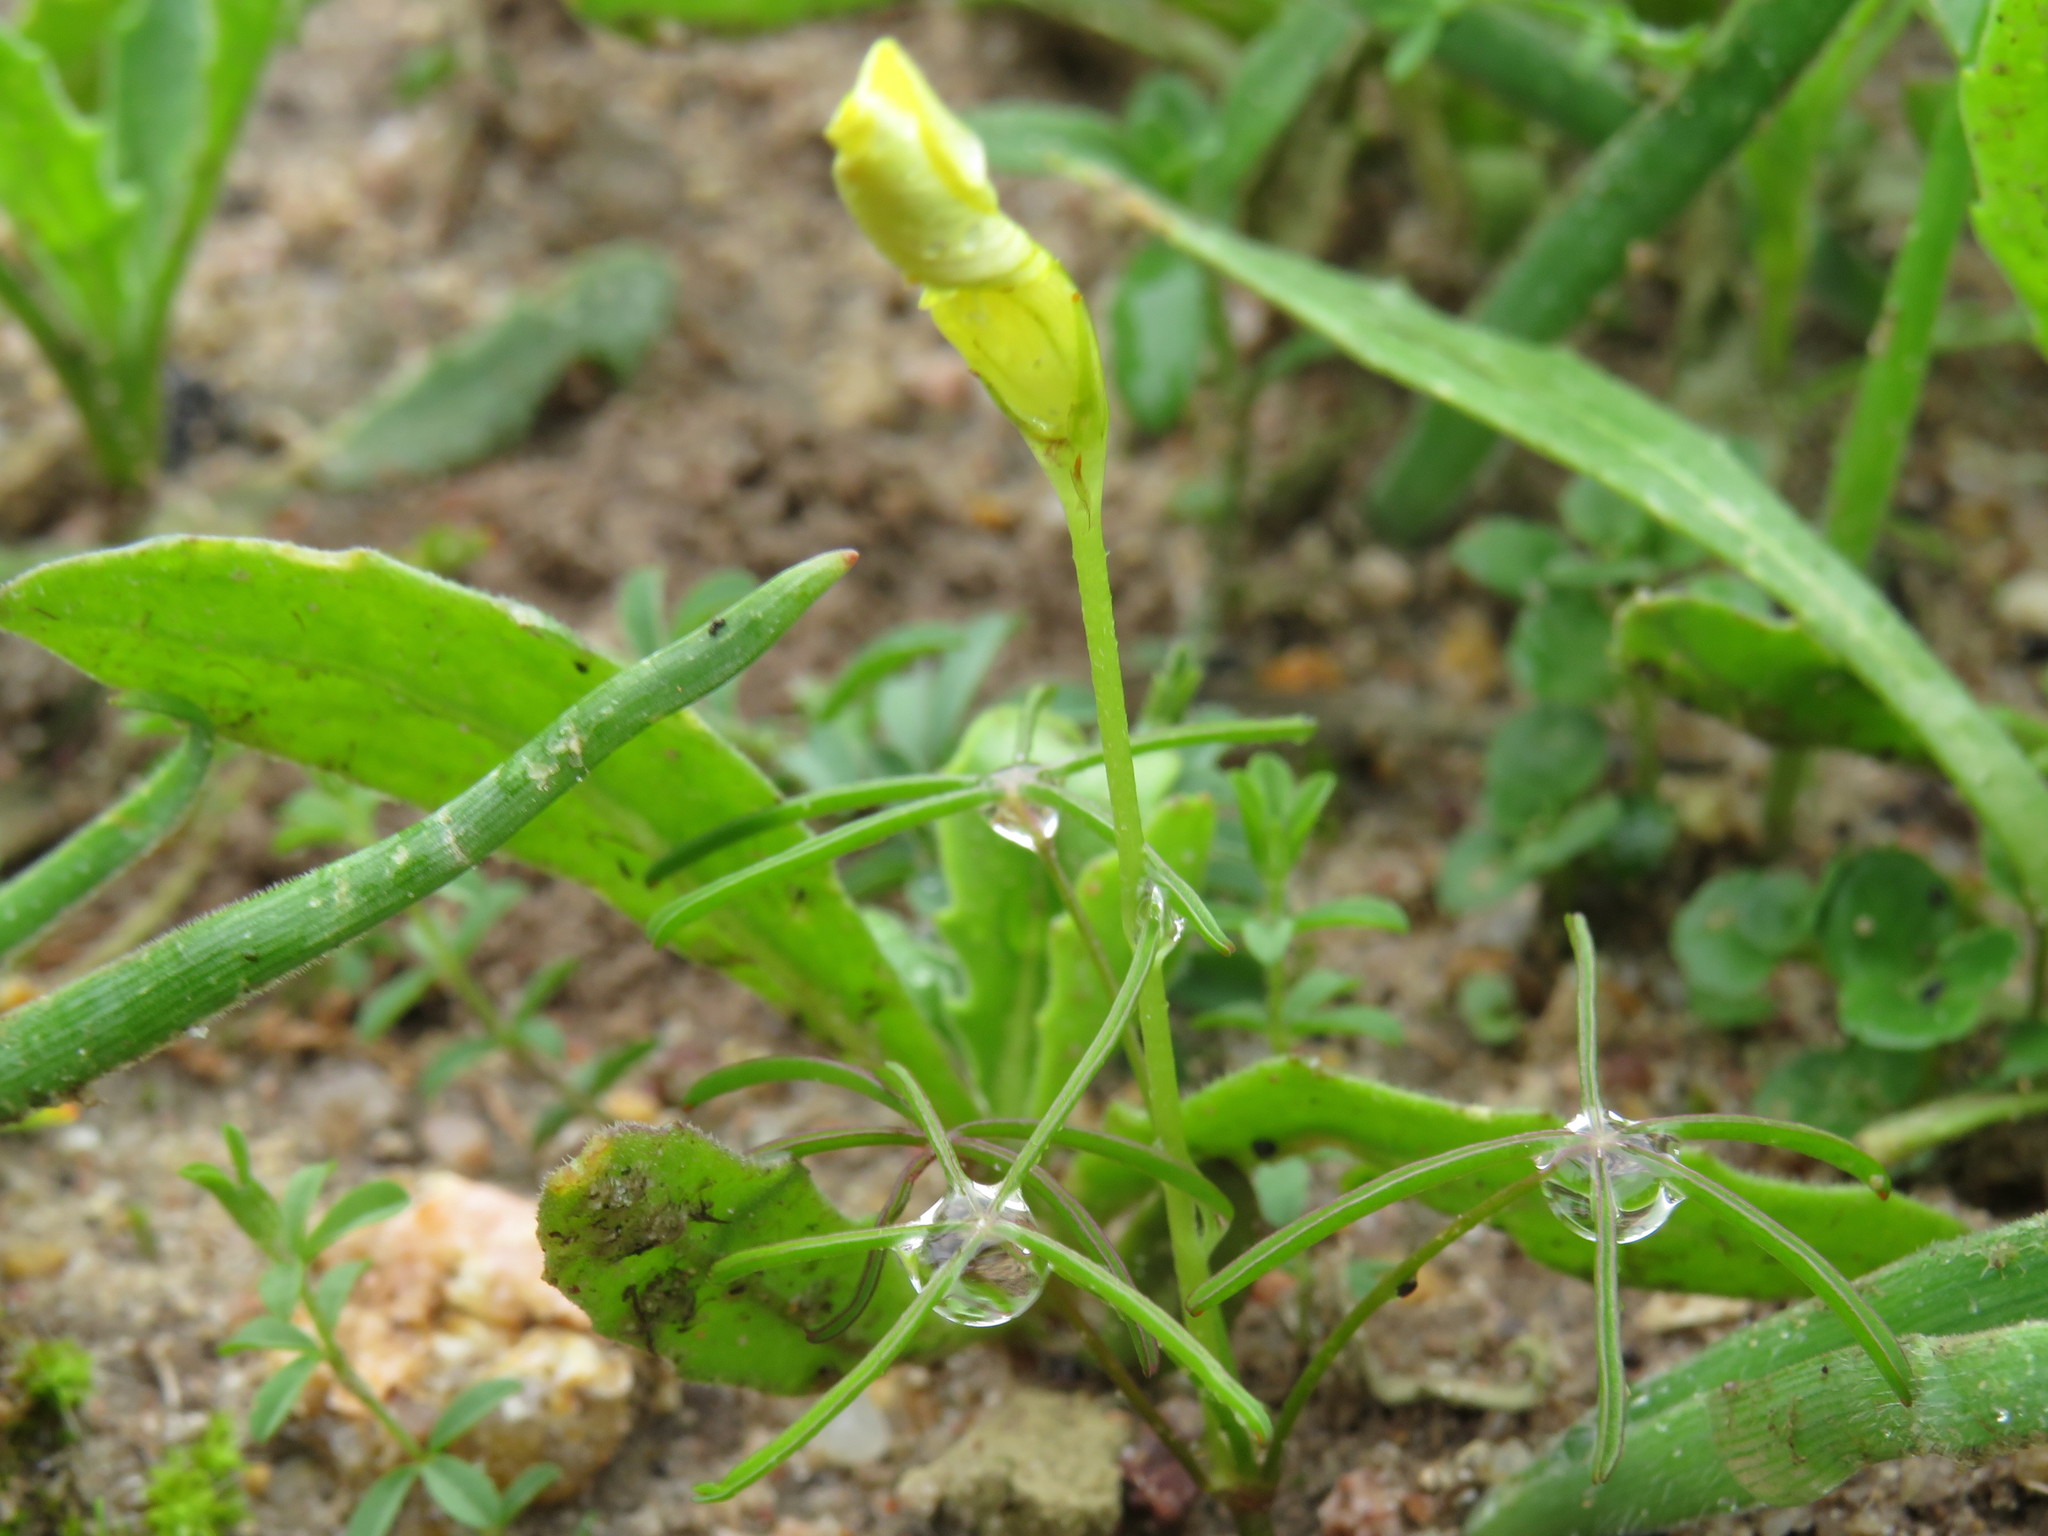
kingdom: Plantae
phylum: Tracheophyta
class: Magnoliopsida
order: Oxalidales
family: Oxalidaceae
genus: Oxalis
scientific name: Oxalis burtoniae
